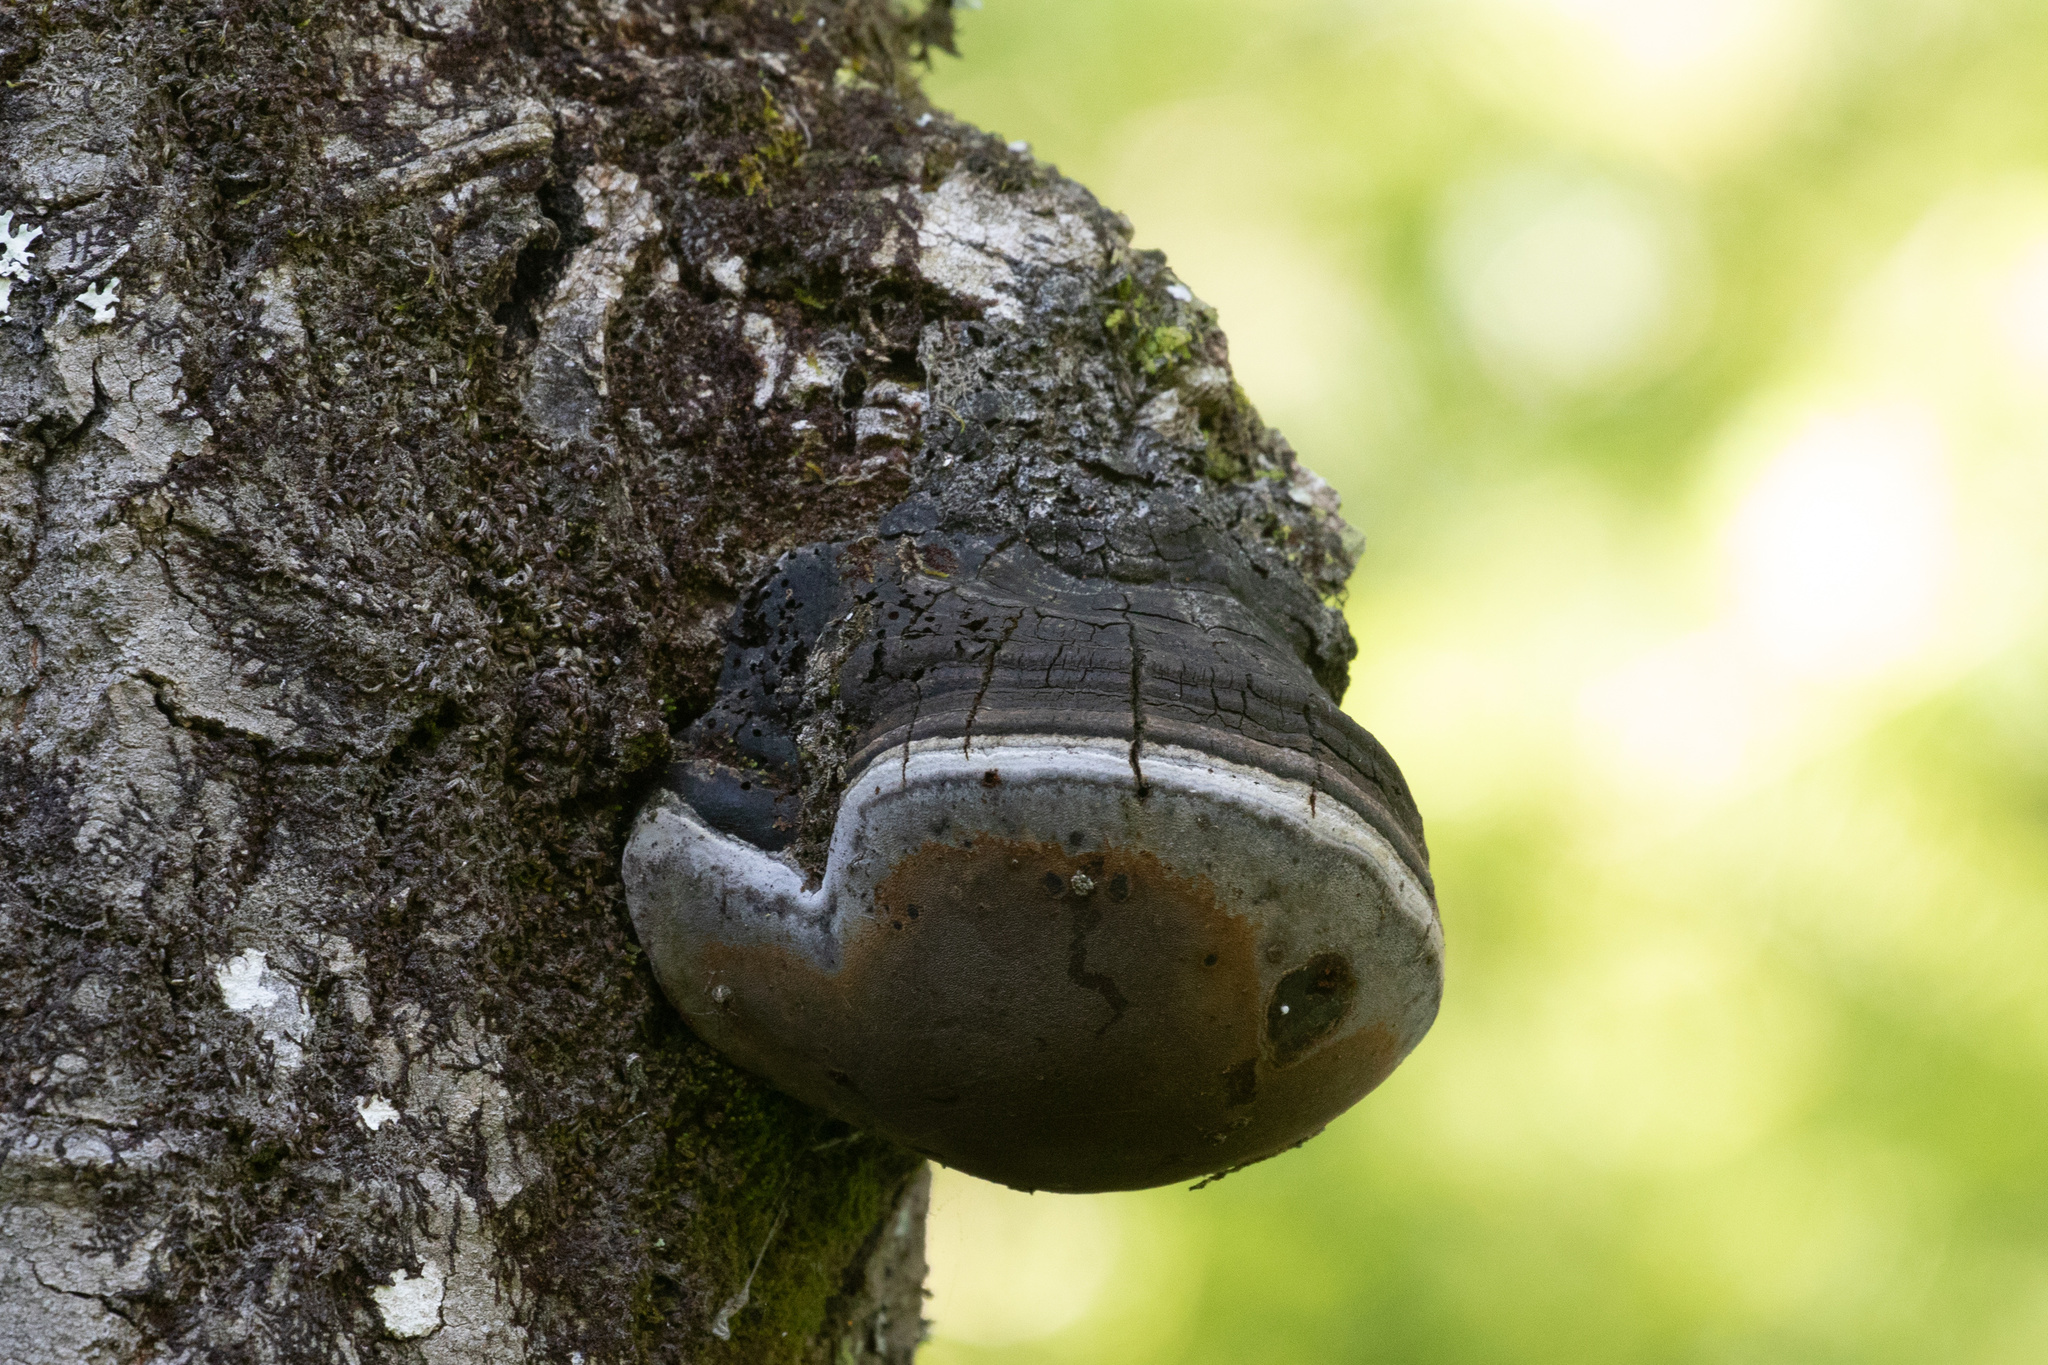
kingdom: Fungi
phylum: Basidiomycota
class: Agaricomycetes
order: Hymenochaetales
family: Hymenochaetaceae
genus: Phellinus
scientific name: Phellinus igniarius
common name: Willow bracket
